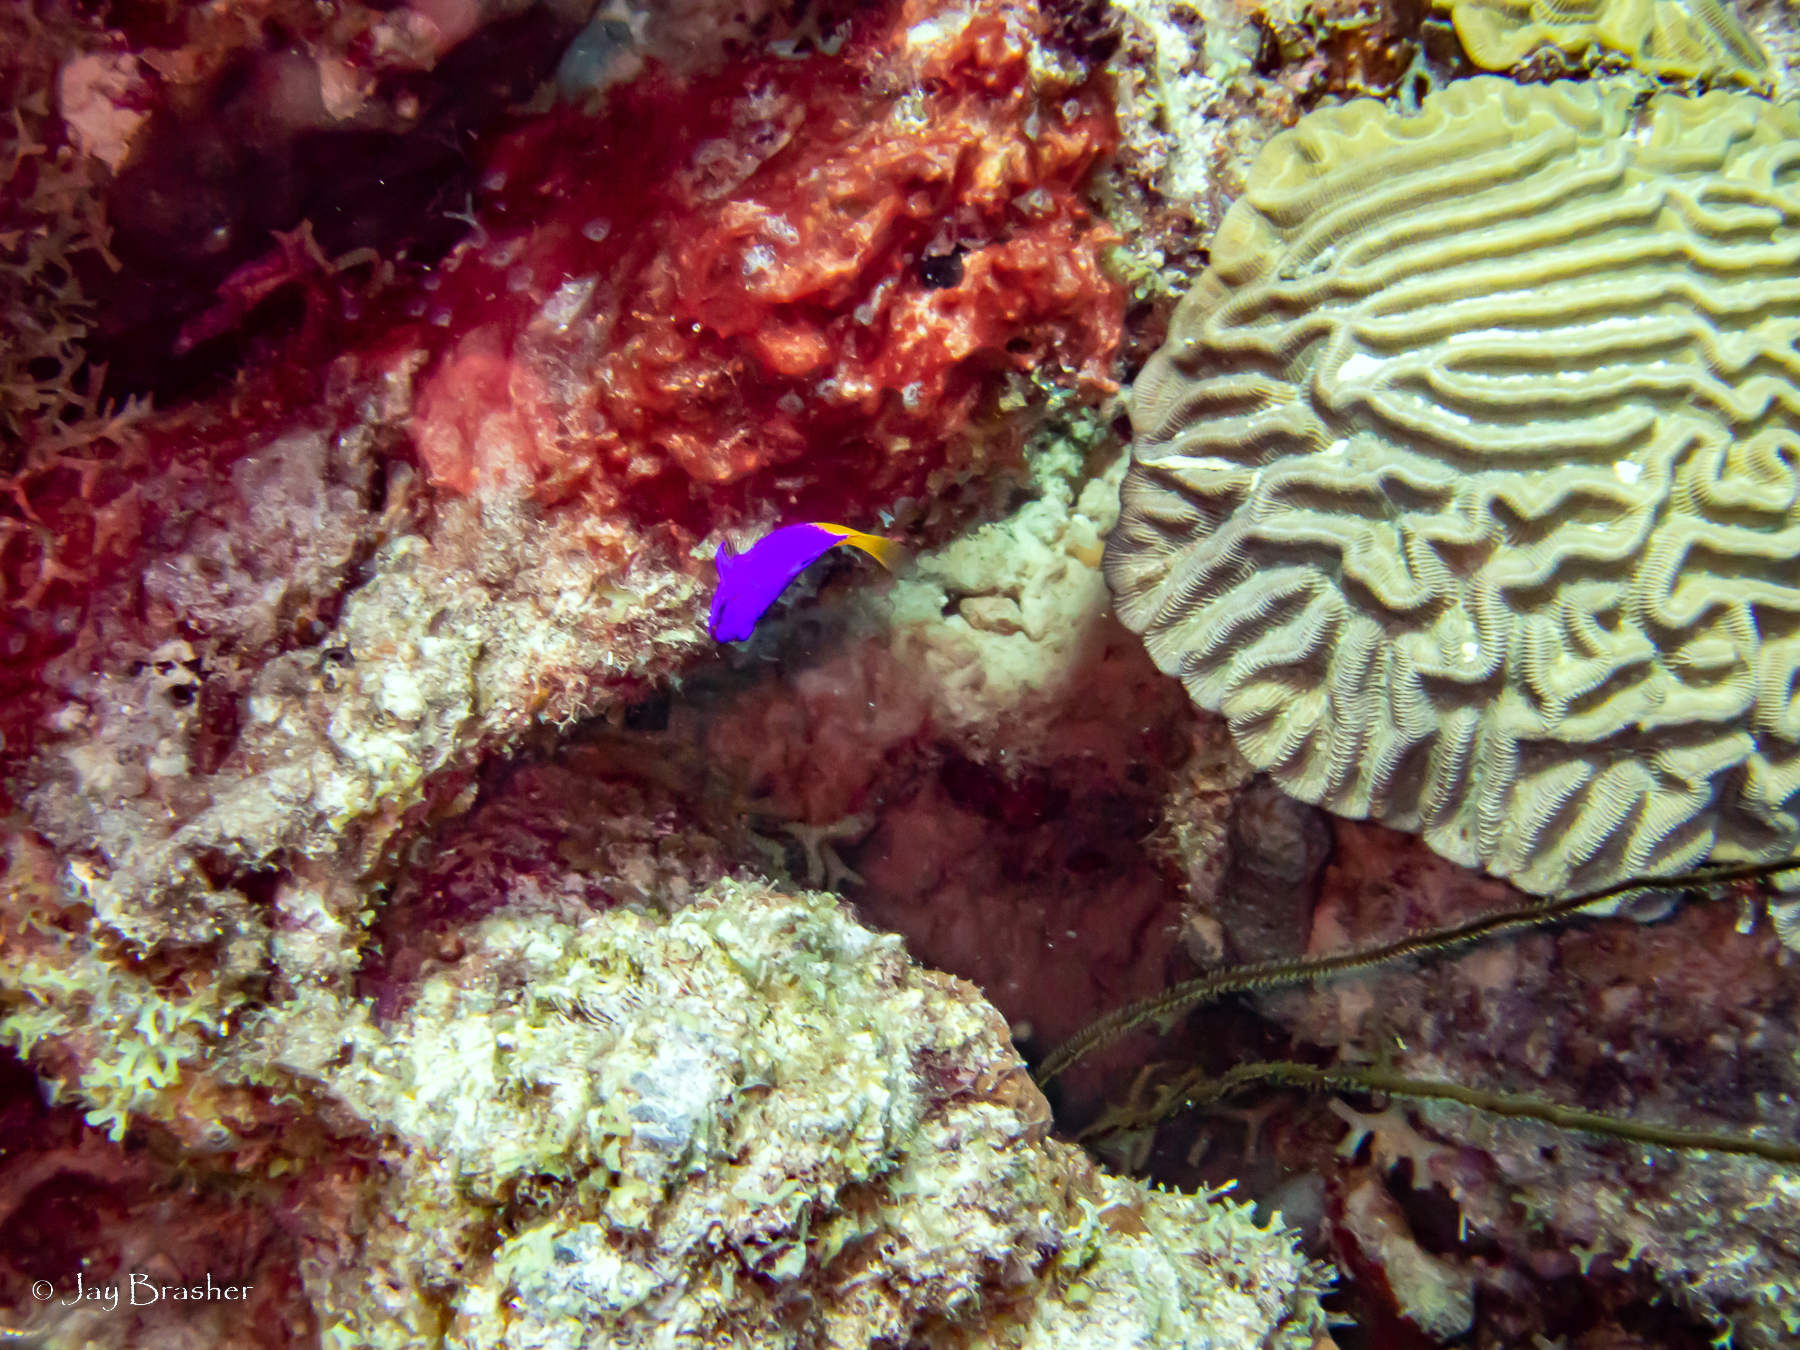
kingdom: Animalia
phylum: Cnidaria
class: Anthozoa
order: Antipatharia
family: Antipathidae
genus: Stichopathes
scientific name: Stichopathes luetkeni
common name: Black wire coral
